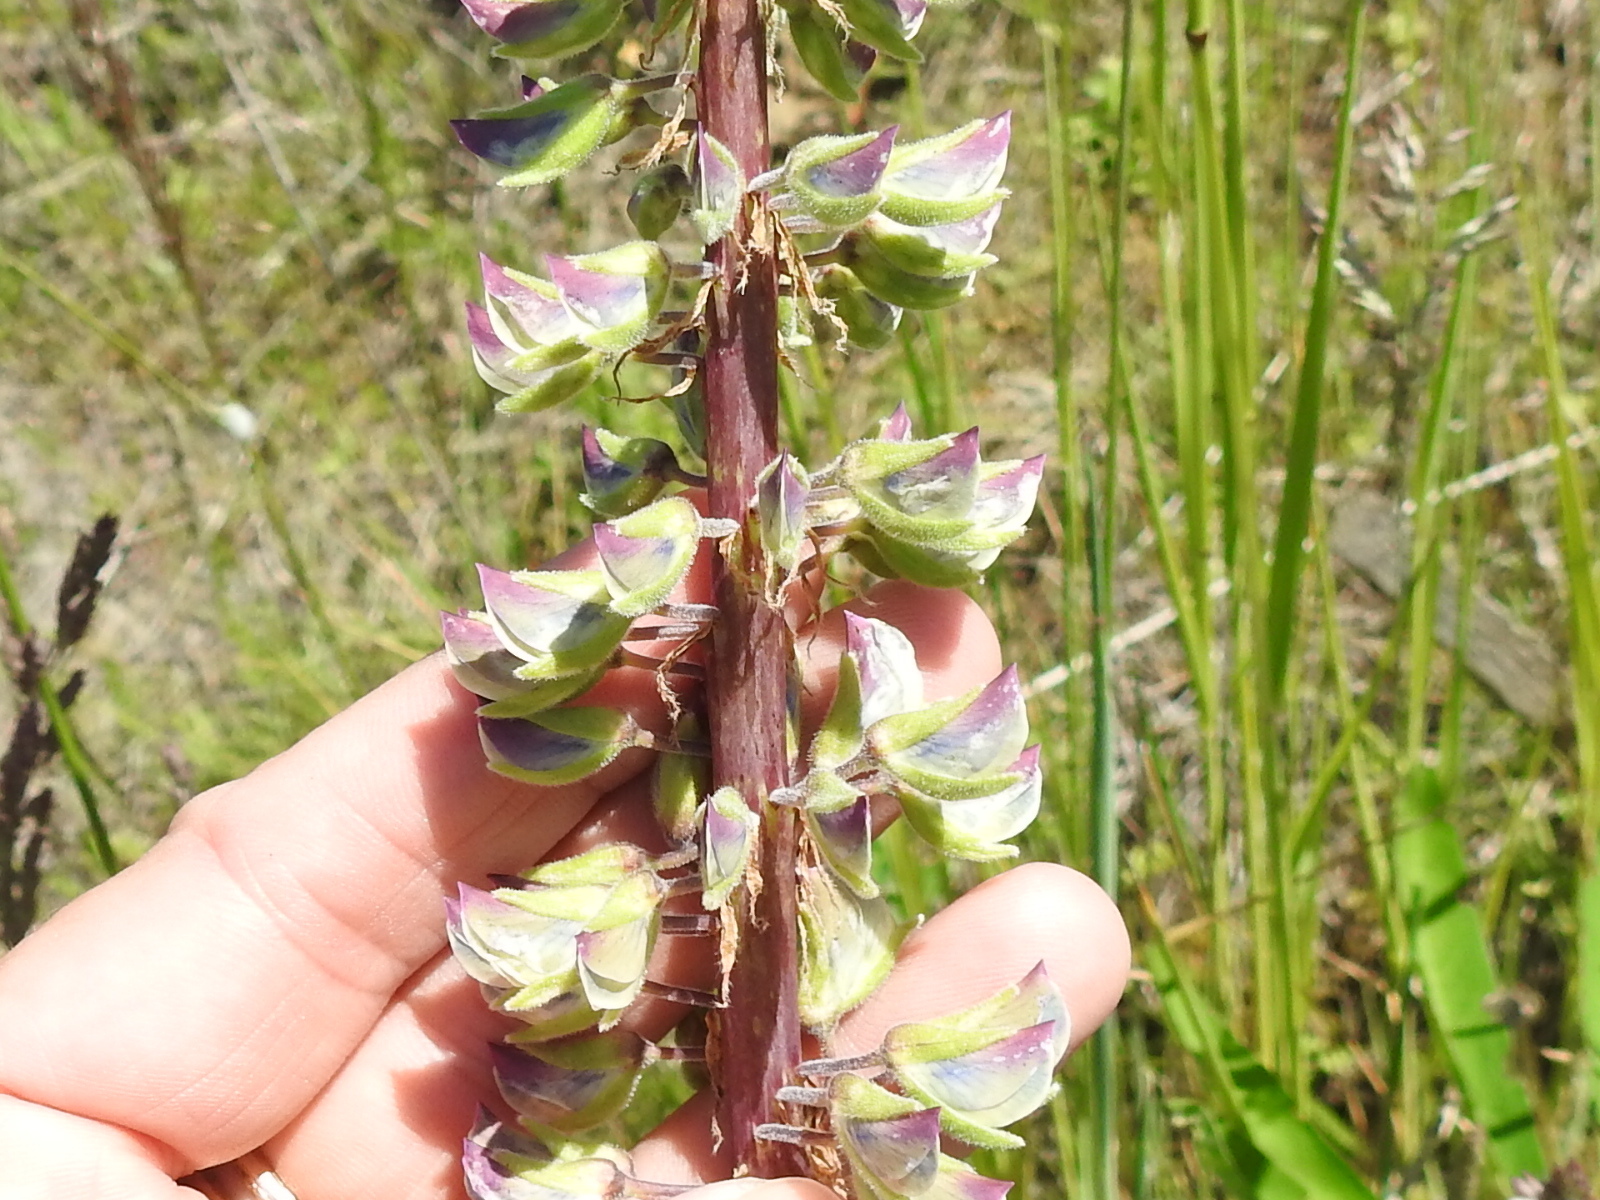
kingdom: Plantae
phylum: Tracheophyta
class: Magnoliopsida
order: Fabales
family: Fabaceae
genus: Lupinus
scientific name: Lupinus polyphyllus
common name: Garden lupin
